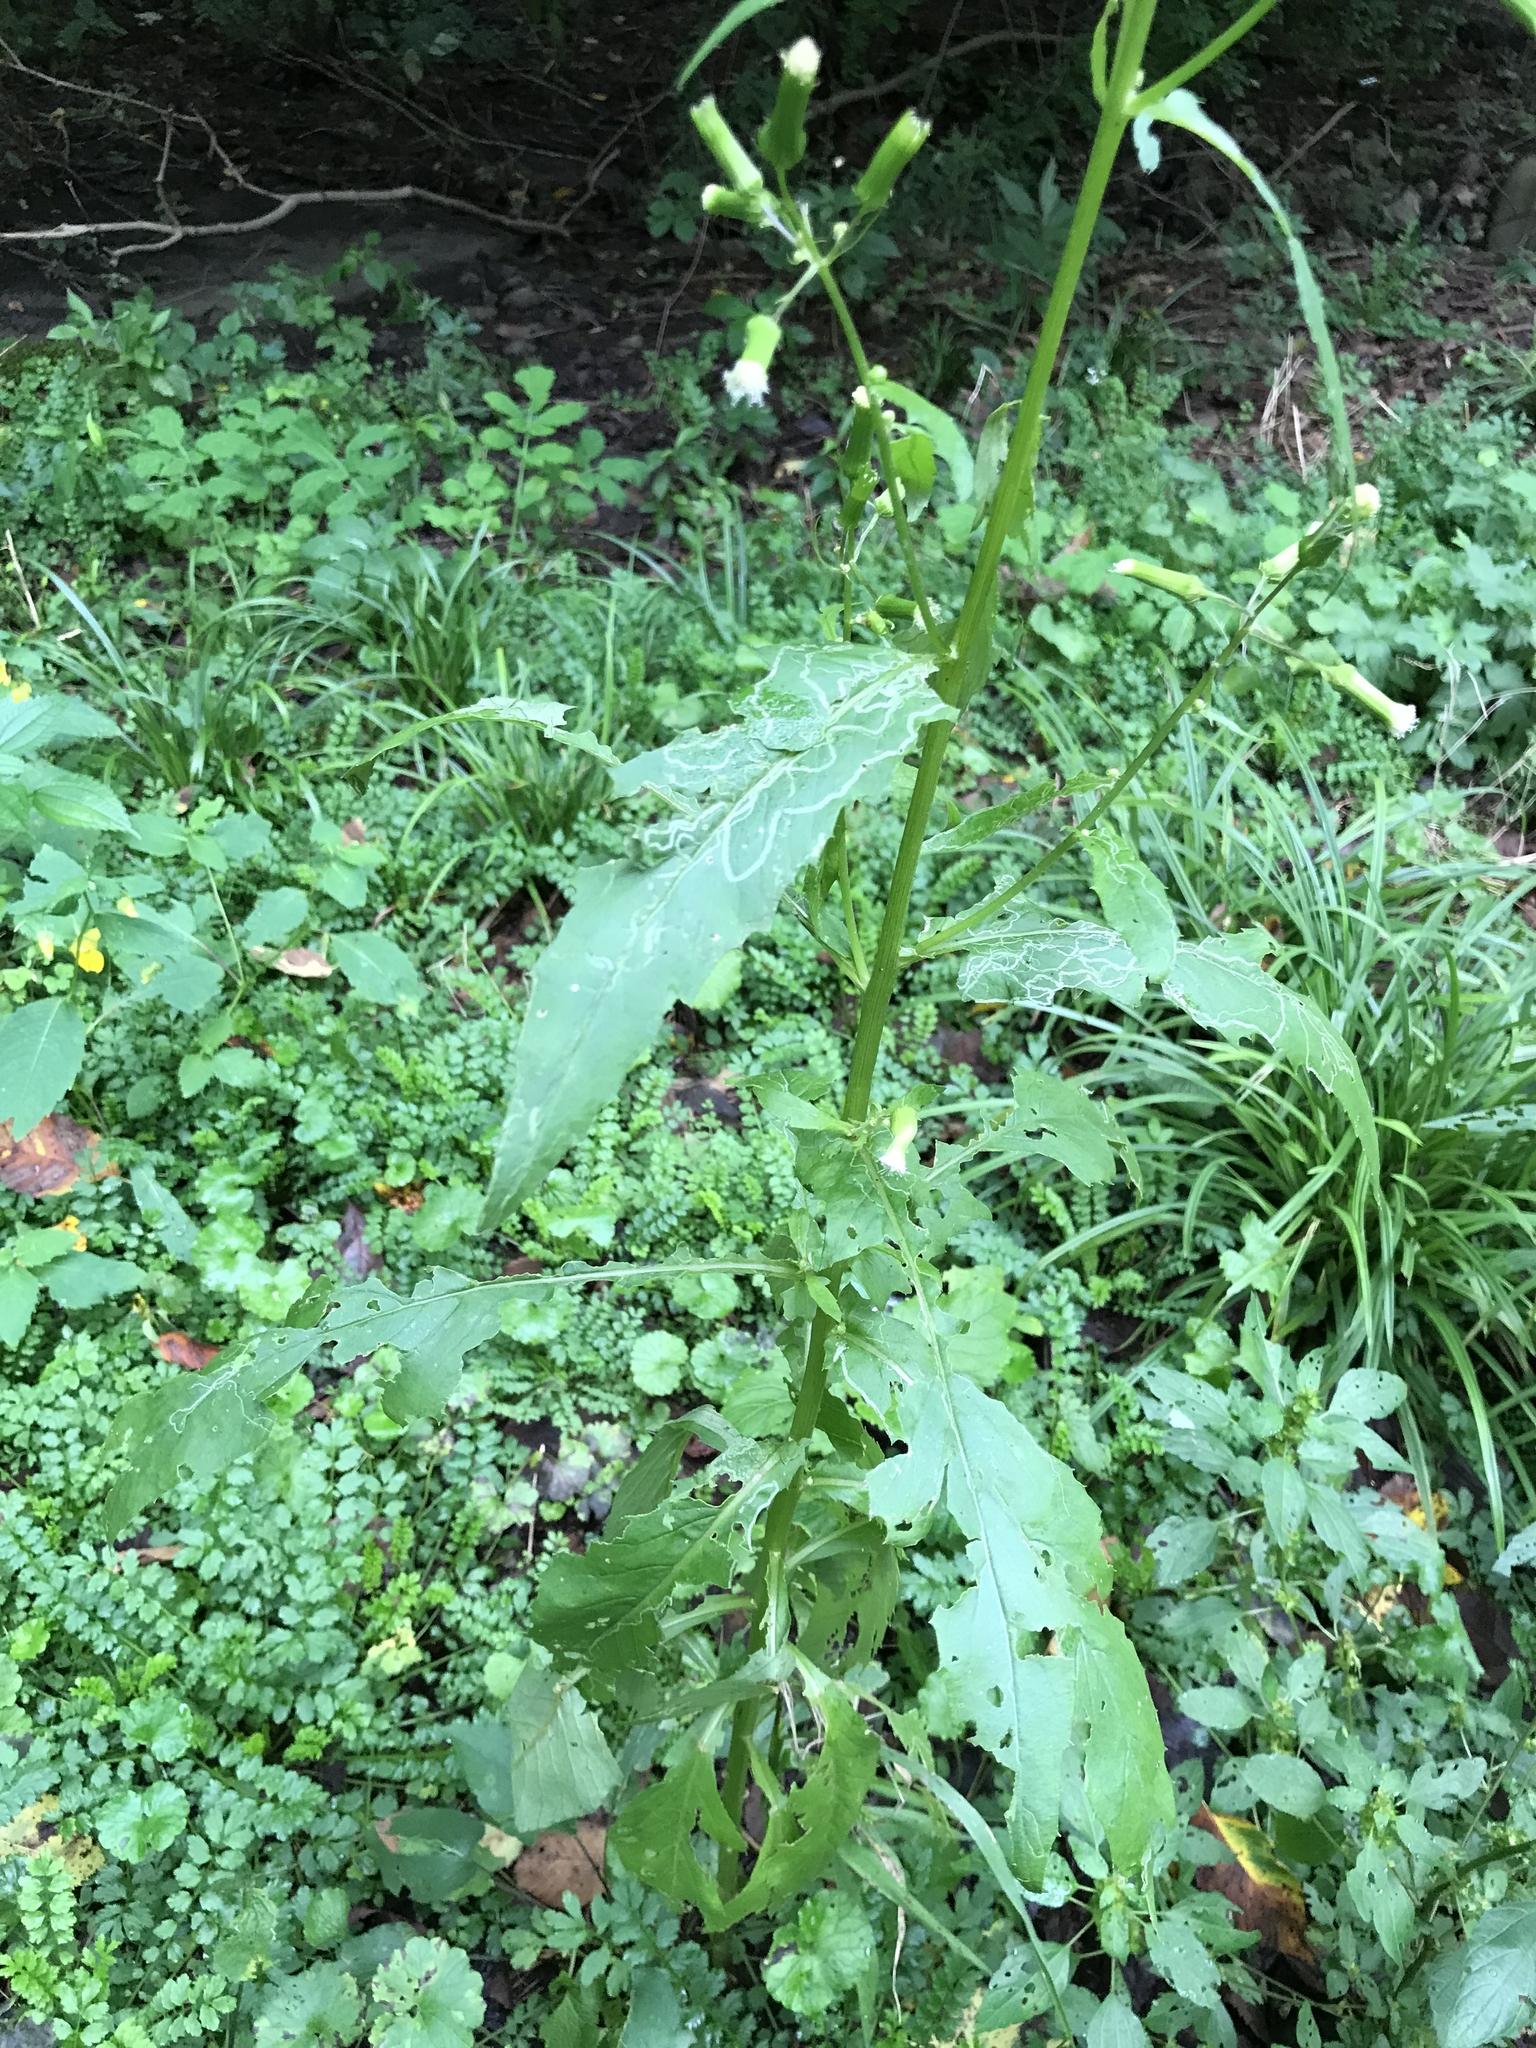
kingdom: Plantae
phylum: Tracheophyta
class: Magnoliopsida
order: Asterales
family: Asteraceae
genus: Erechtites
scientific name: Erechtites hieraciifolius
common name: American burnweed
